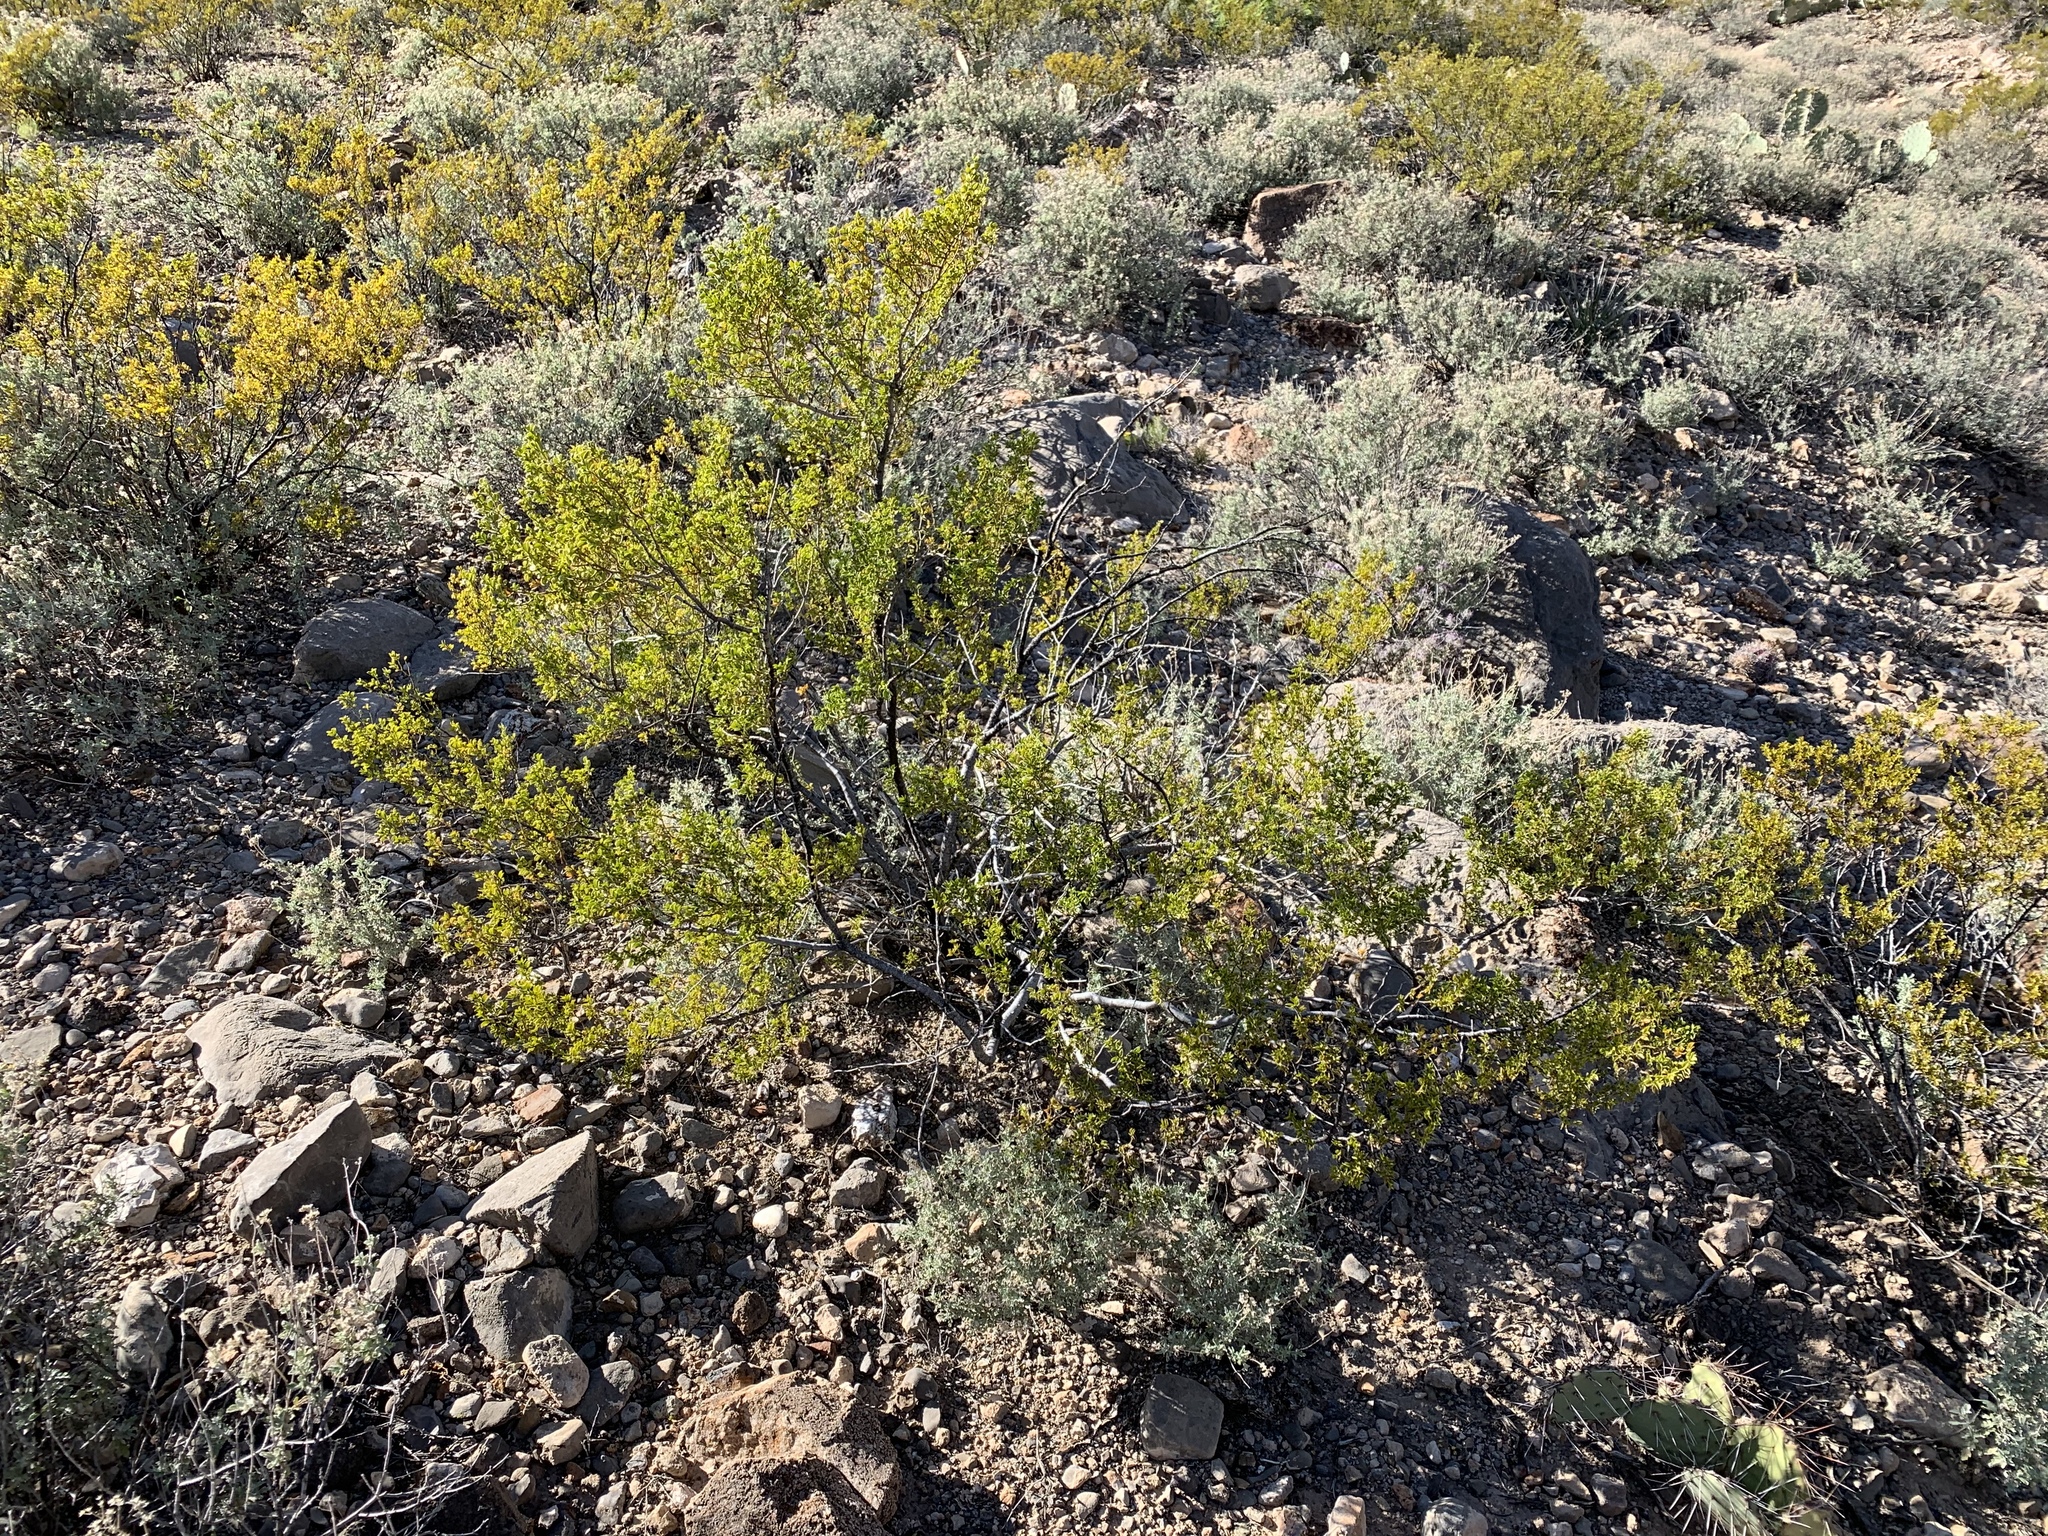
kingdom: Plantae
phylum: Tracheophyta
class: Magnoliopsida
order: Zygophyllales
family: Zygophyllaceae
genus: Larrea
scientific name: Larrea tridentata
